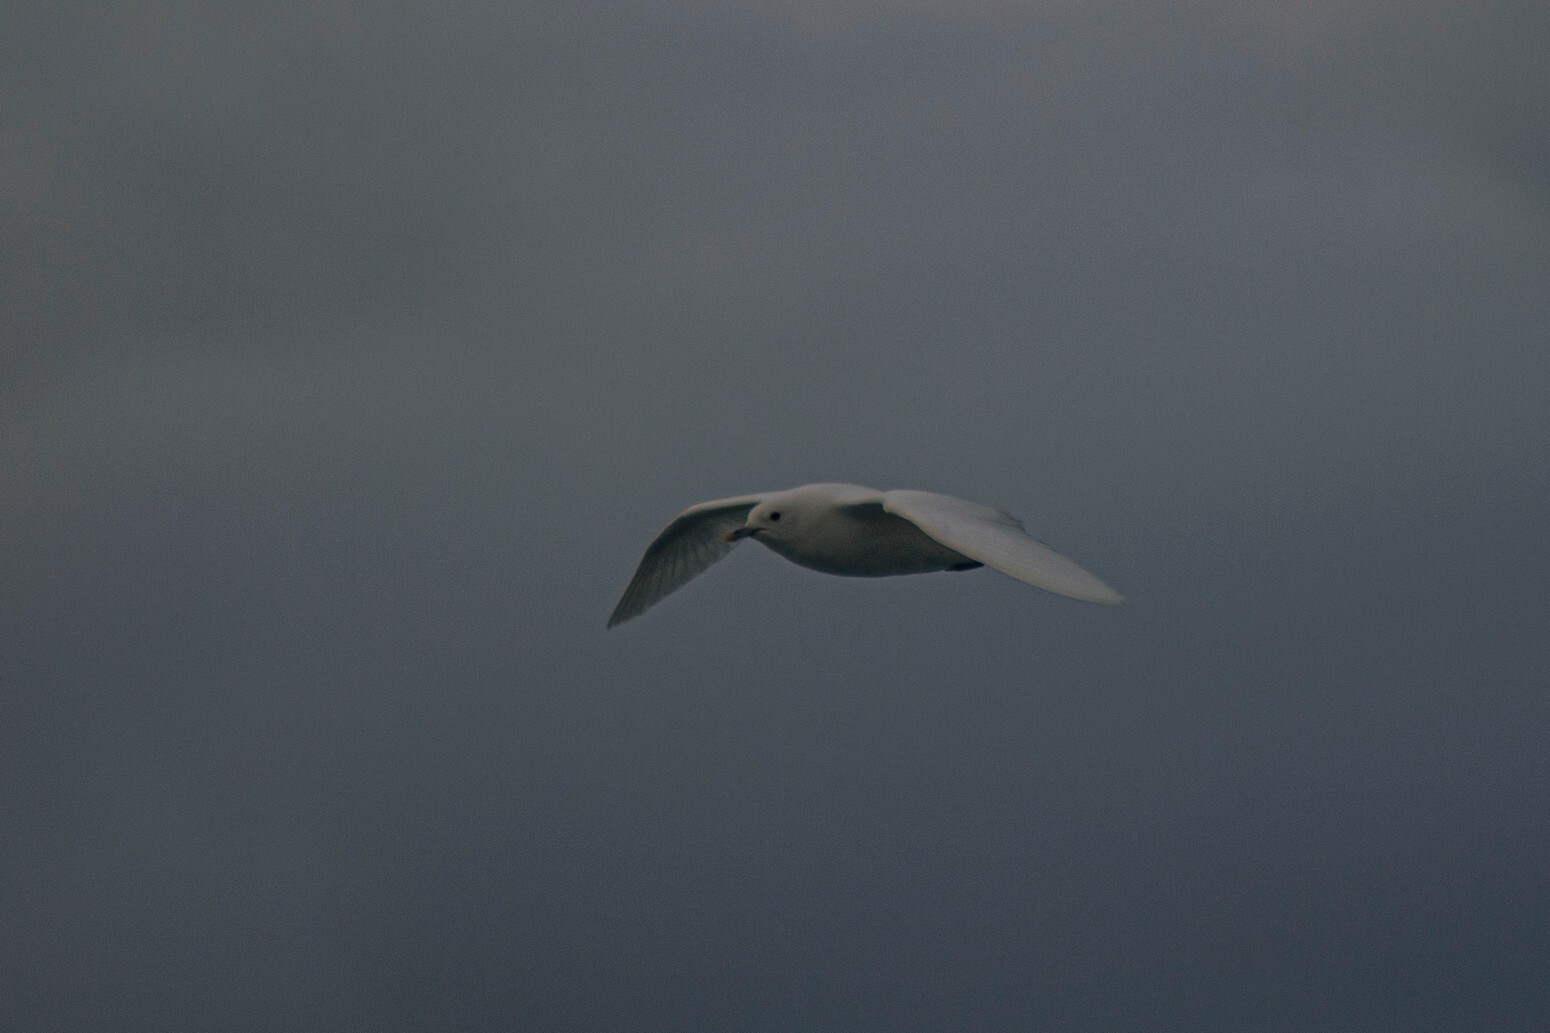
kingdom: Animalia
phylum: Chordata
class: Aves
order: Charadriiformes
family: Laridae
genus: Pagophila
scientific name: Pagophila eburnea
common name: Ivory gull
